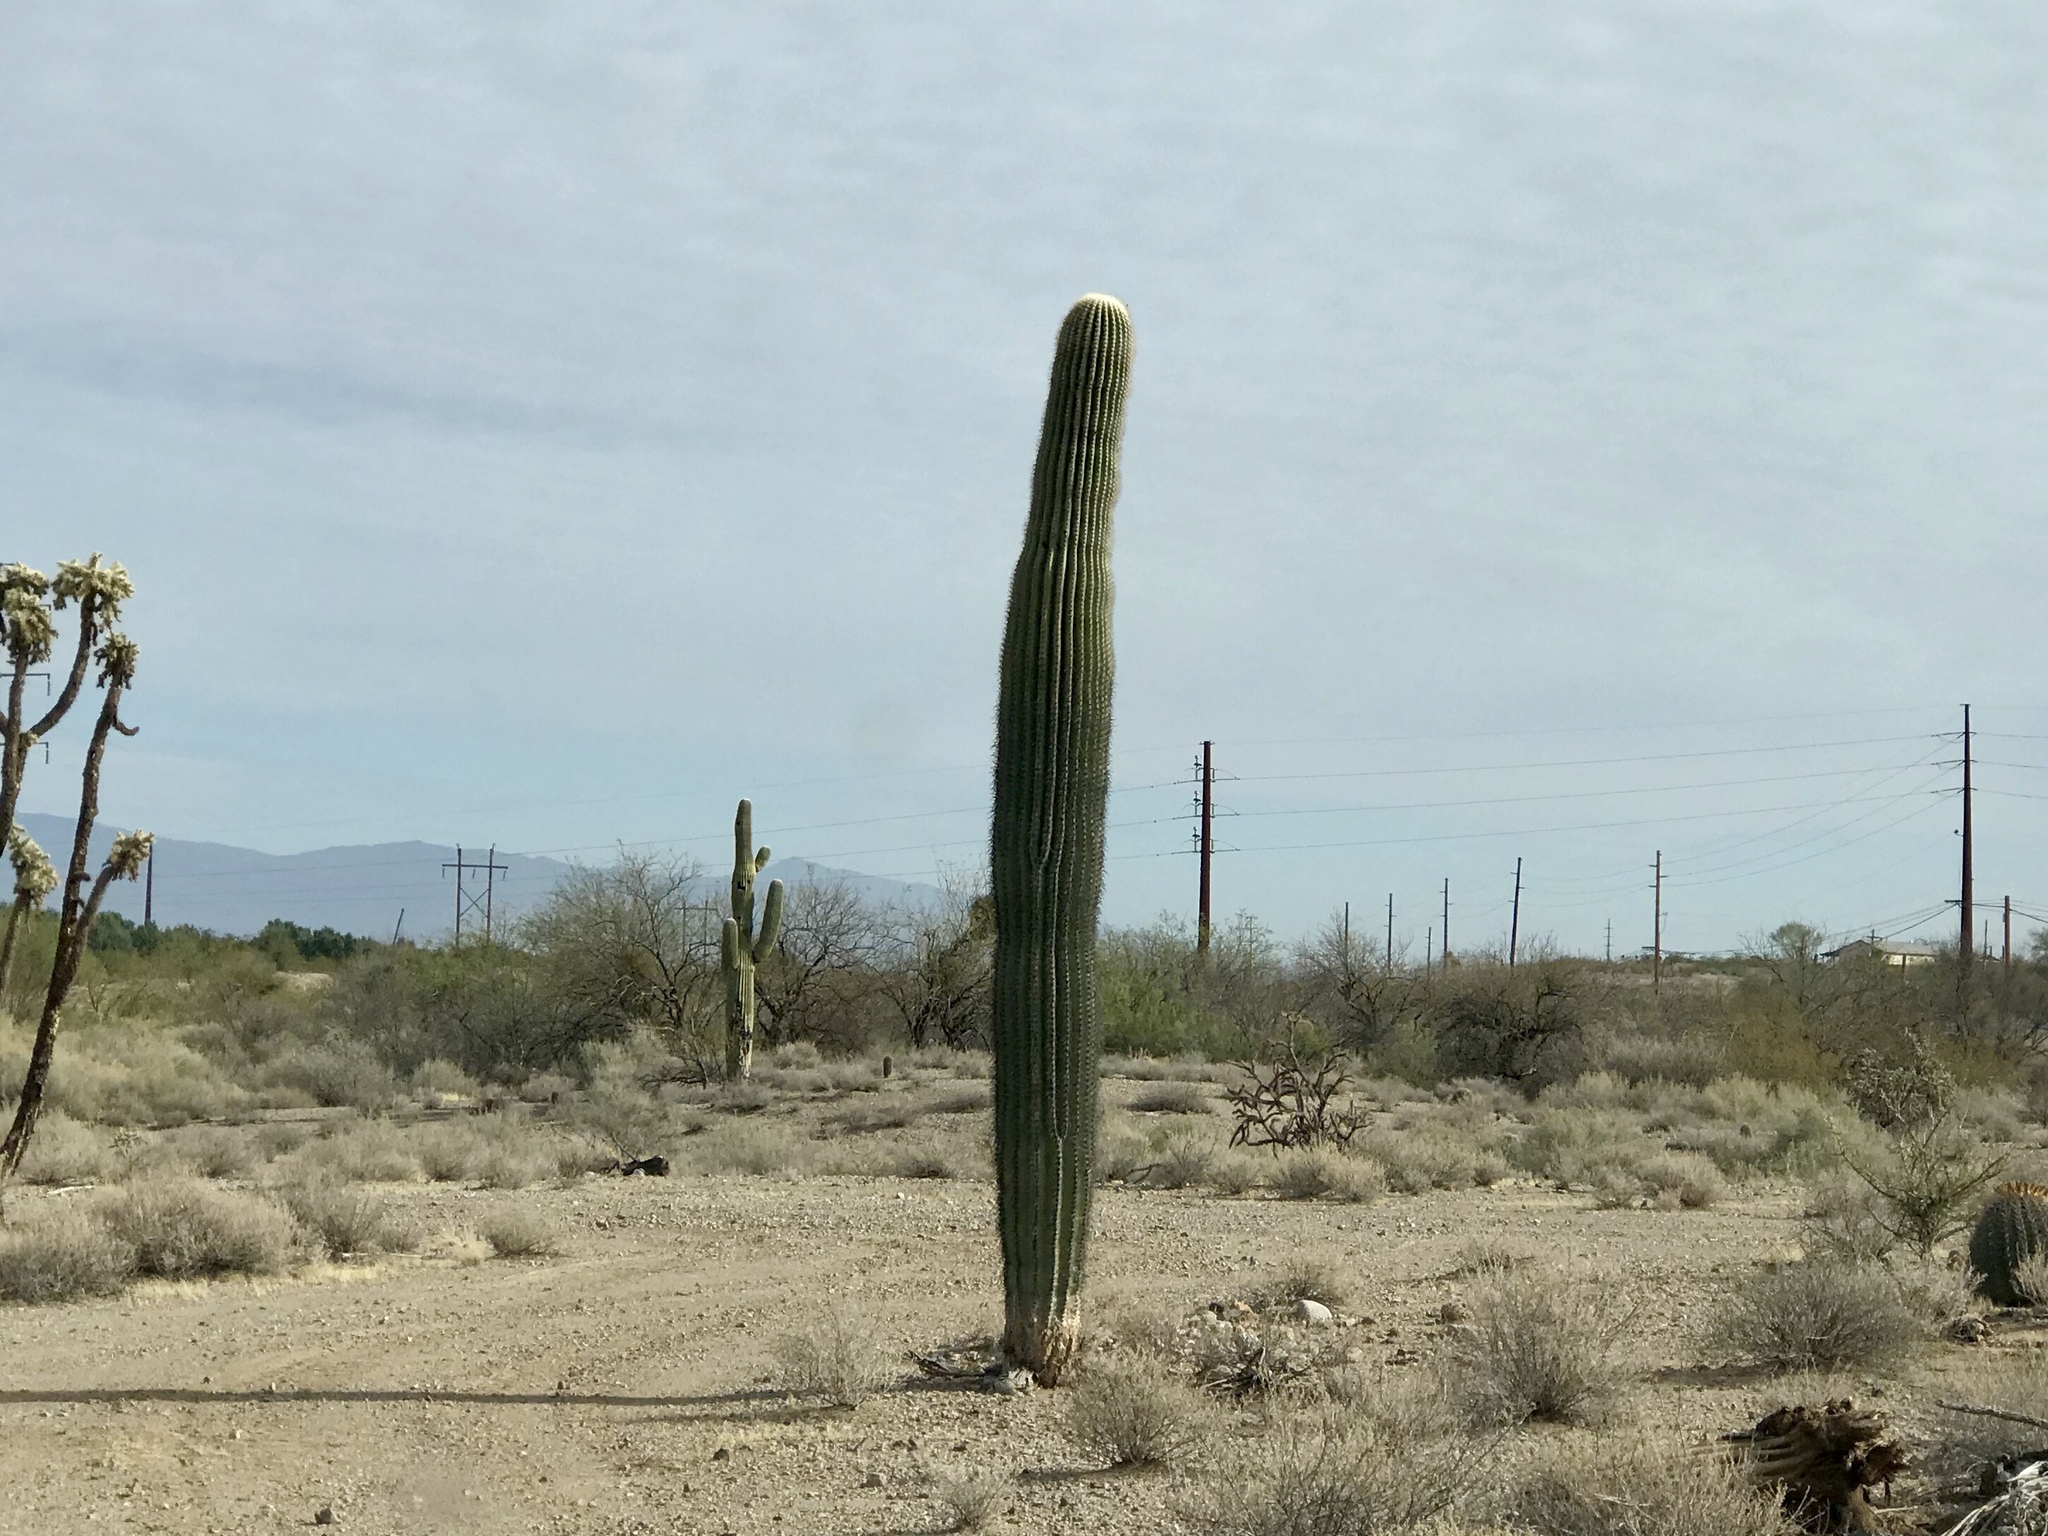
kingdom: Plantae
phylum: Tracheophyta
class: Magnoliopsida
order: Caryophyllales
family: Cactaceae
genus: Carnegiea
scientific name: Carnegiea gigantea
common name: Saguaro
